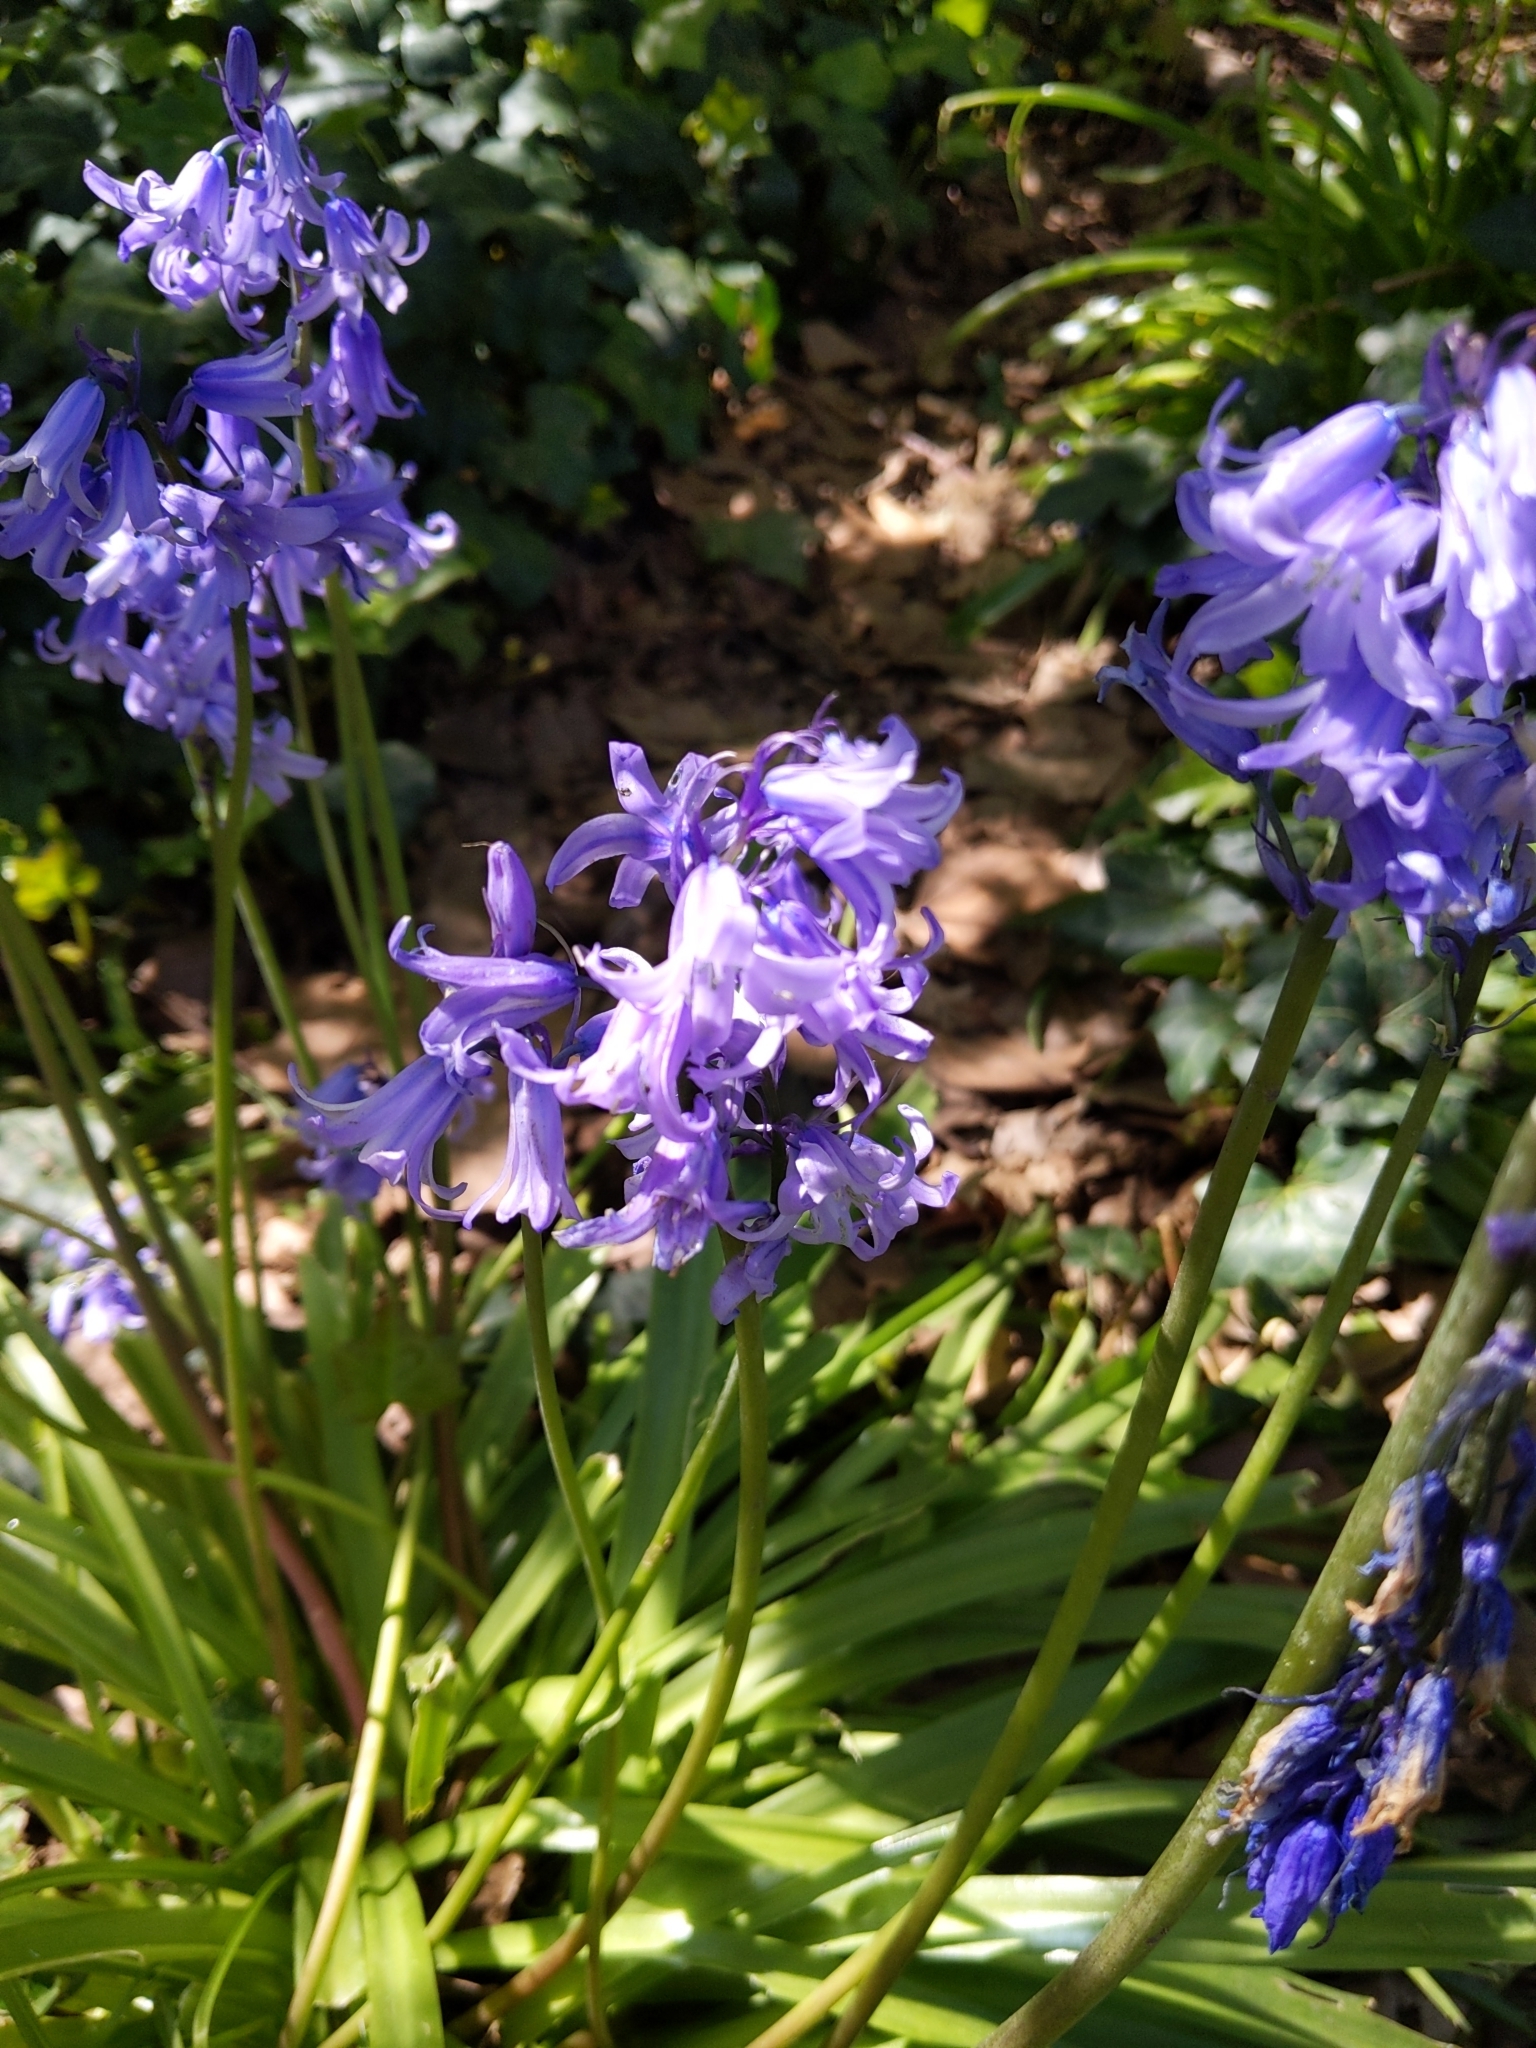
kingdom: Plantae
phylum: Tracheophyta
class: Liliopsida
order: Asparagales
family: Asparagaceae
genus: Hyacinthoides
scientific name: Hyacinthoides hispanica
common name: Spanish bluebell
